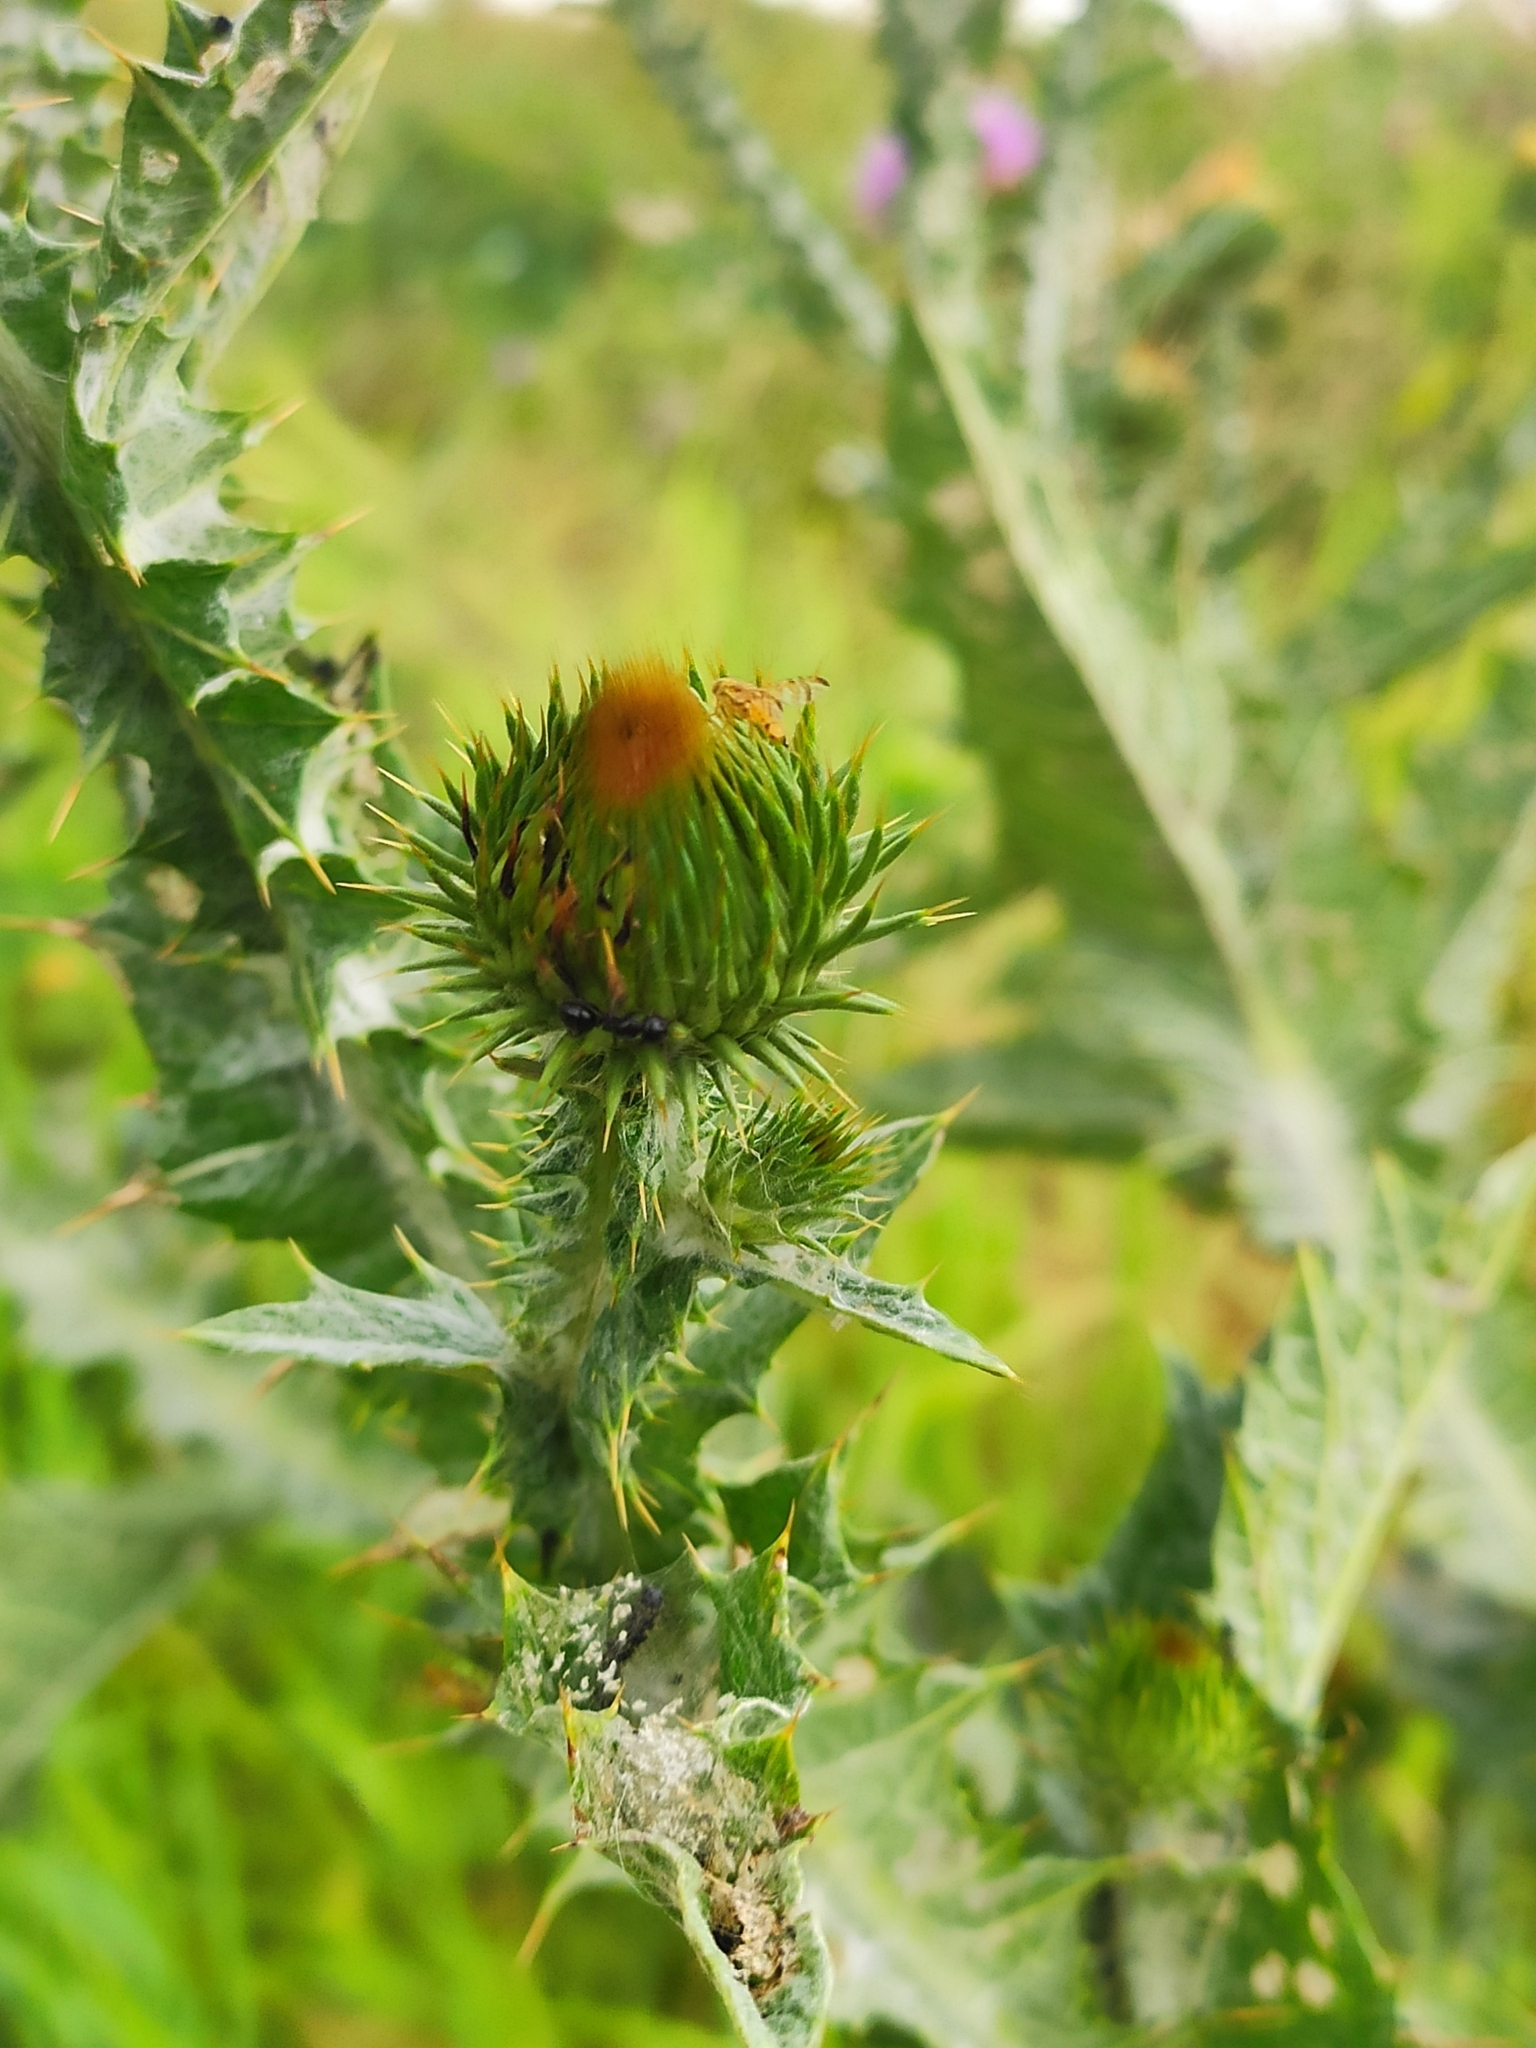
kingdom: Plantae
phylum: Tracheophyta
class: Magnoliopsida
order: Asterales
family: Asteraceae
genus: Onopordum
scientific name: Onopordum acanthium
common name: Scotch thistle
